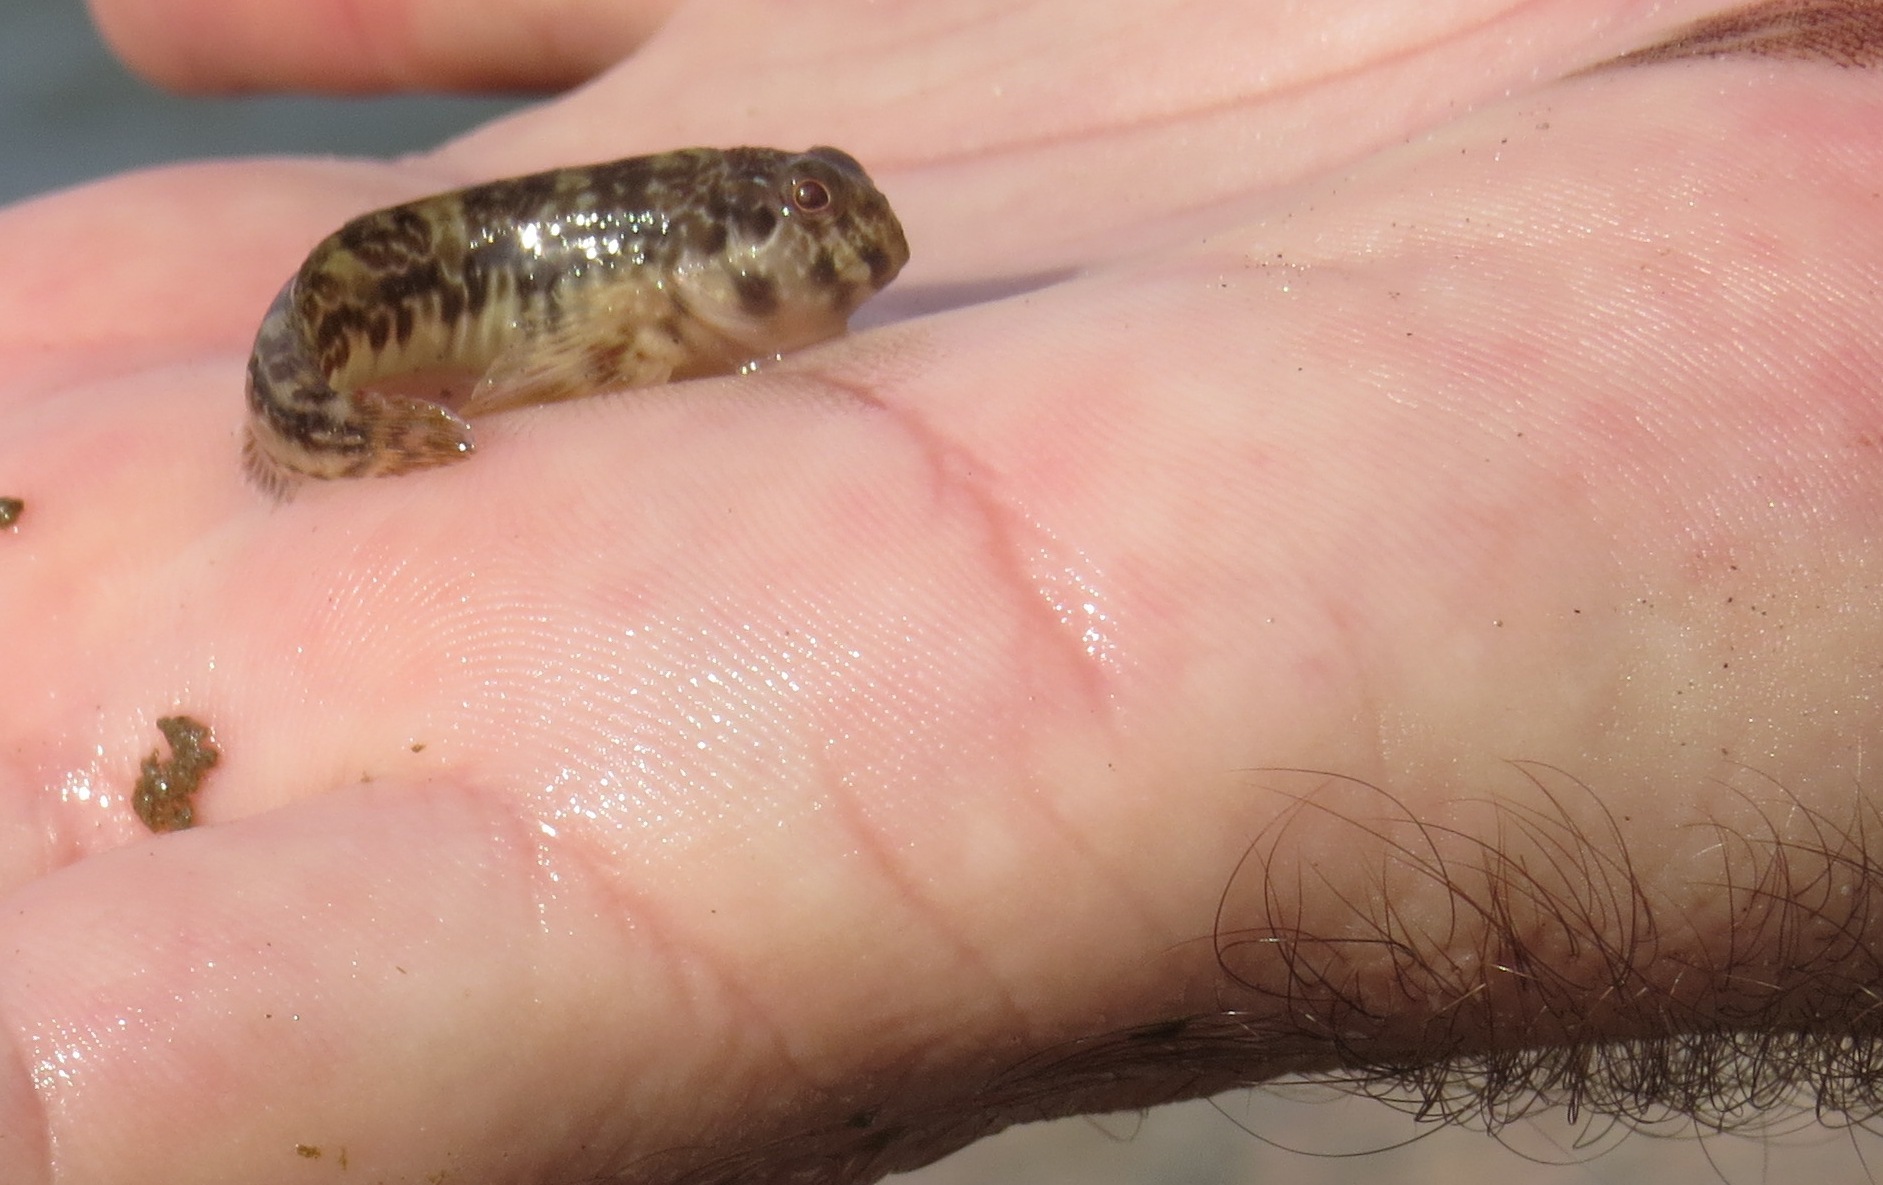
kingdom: Animalia
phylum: Chordata
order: Perciformes
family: Blenniidae
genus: Scartella
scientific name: Scartella cristata
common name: Molly miller
